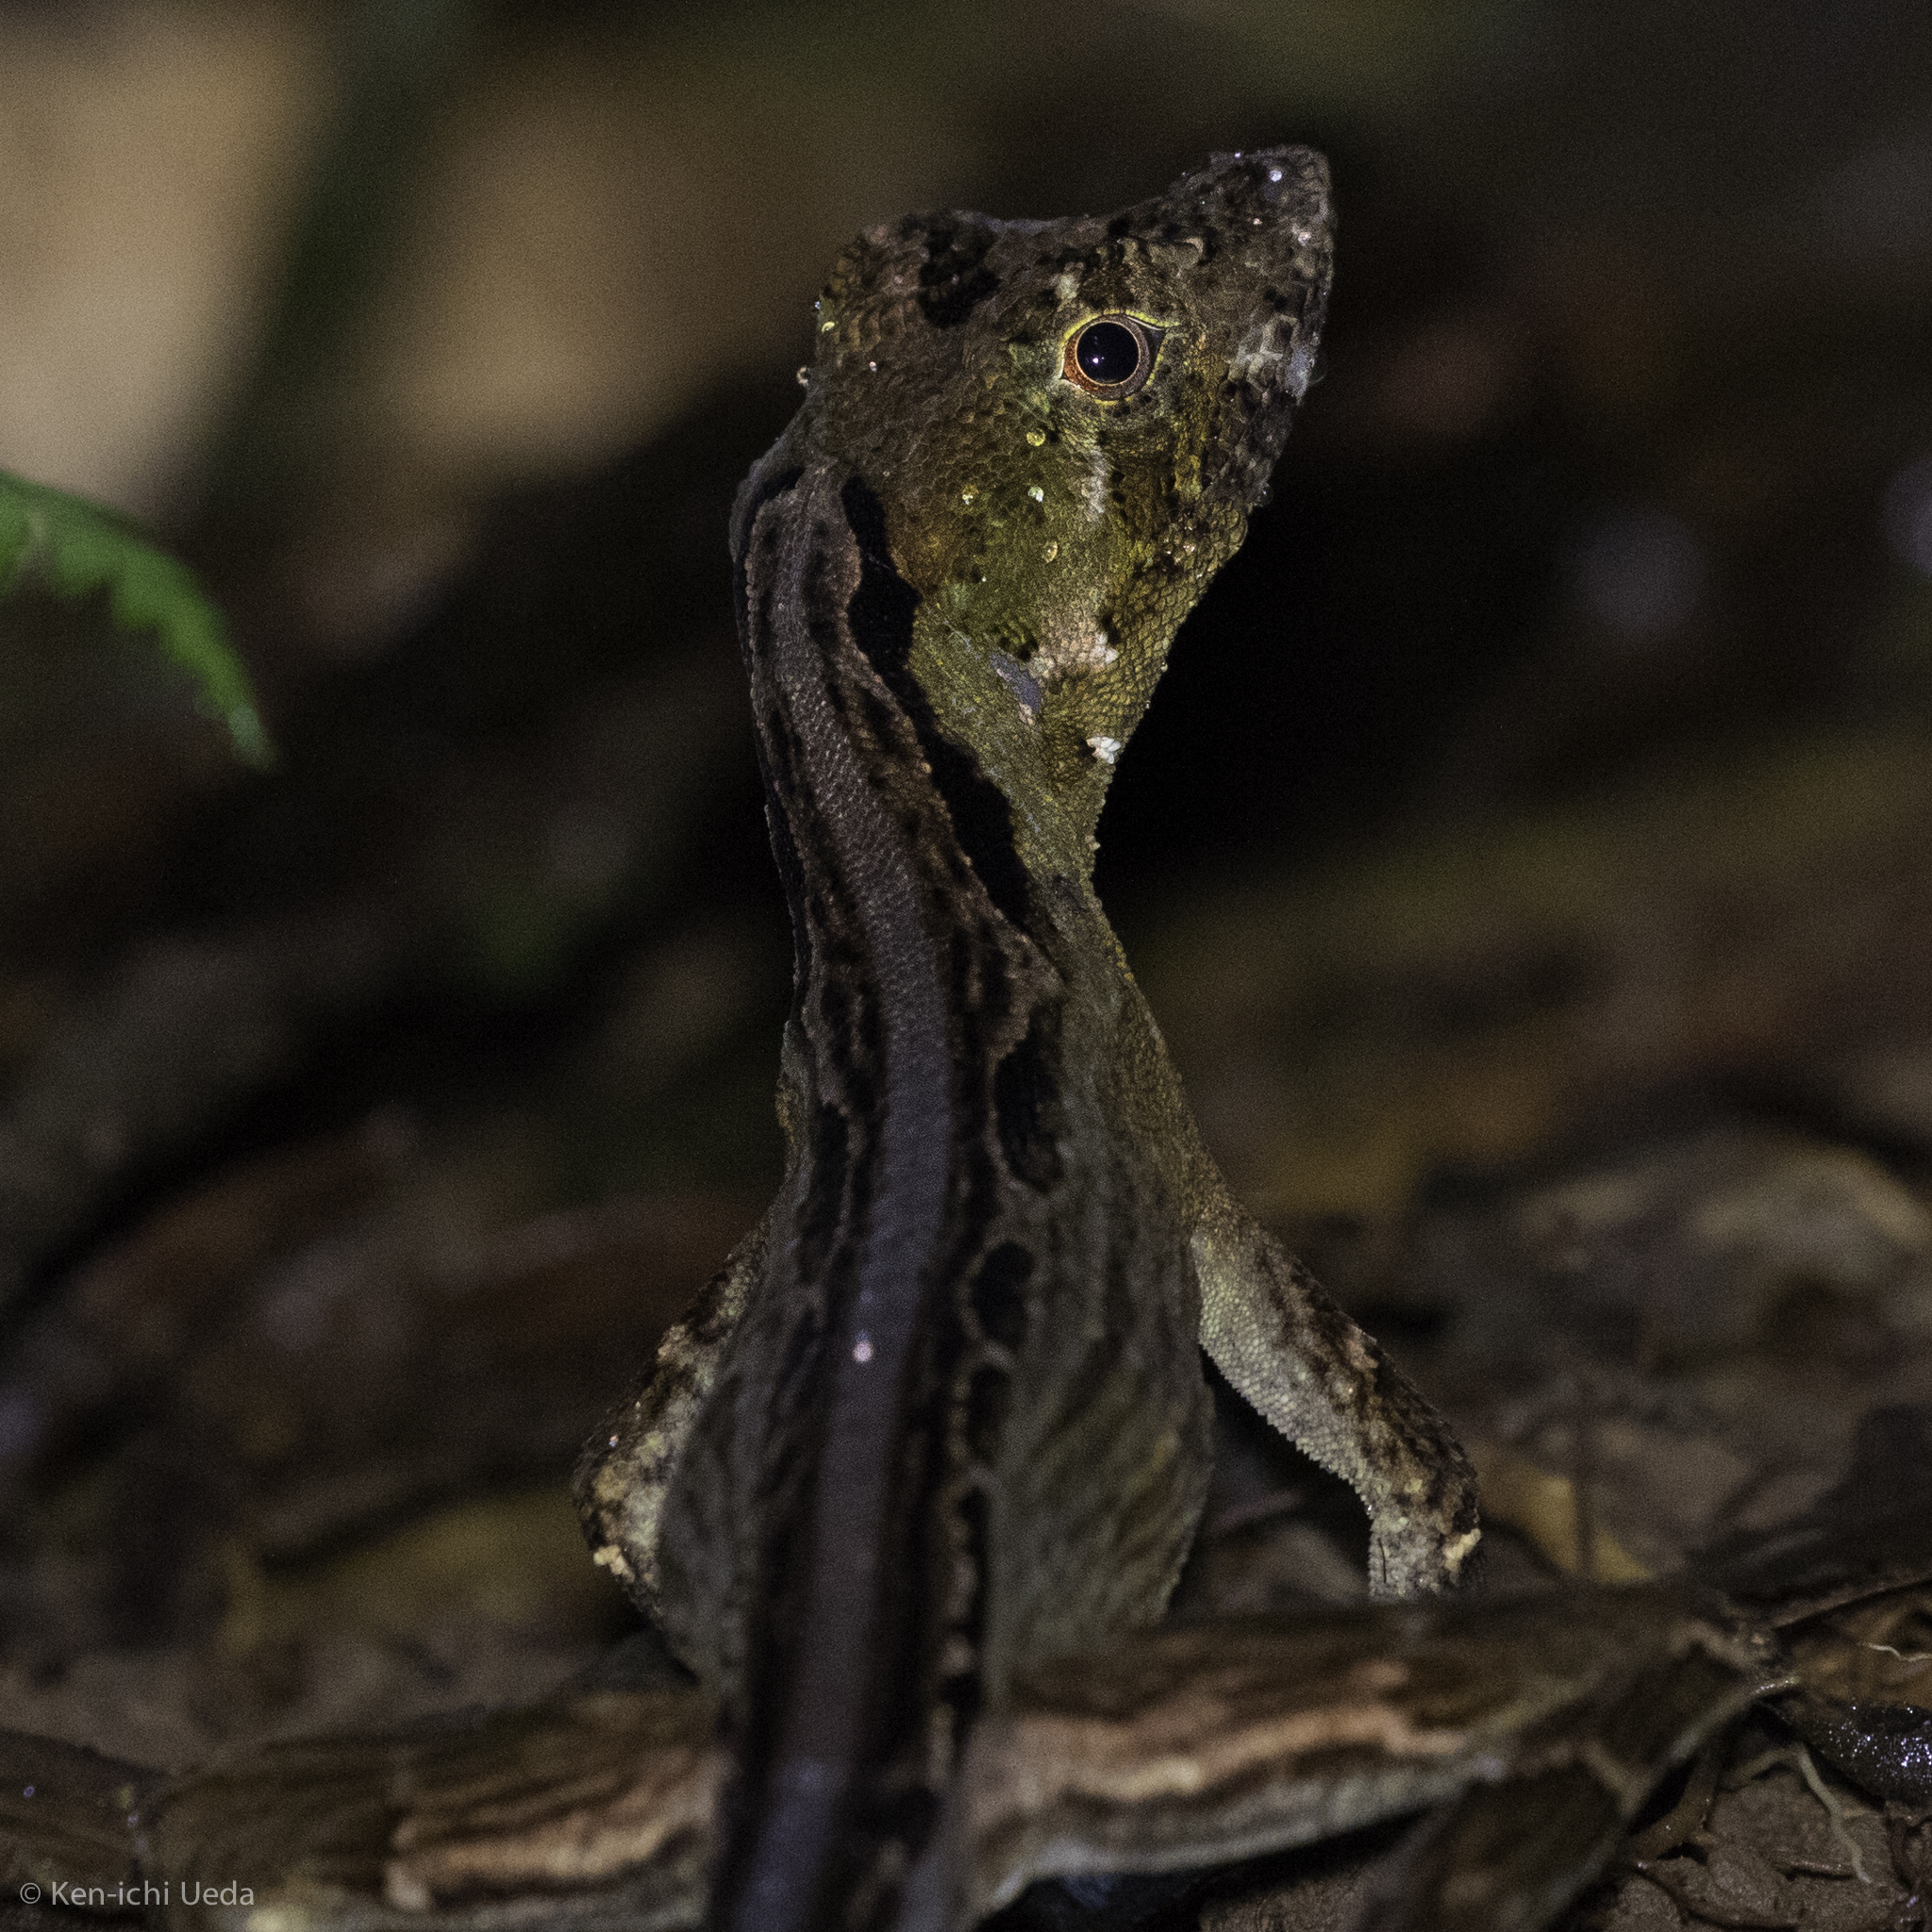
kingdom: Animalia
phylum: Chordata
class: Squamata
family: Dactyloidae
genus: Anolis
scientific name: Anolis capito
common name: Bighead anole
